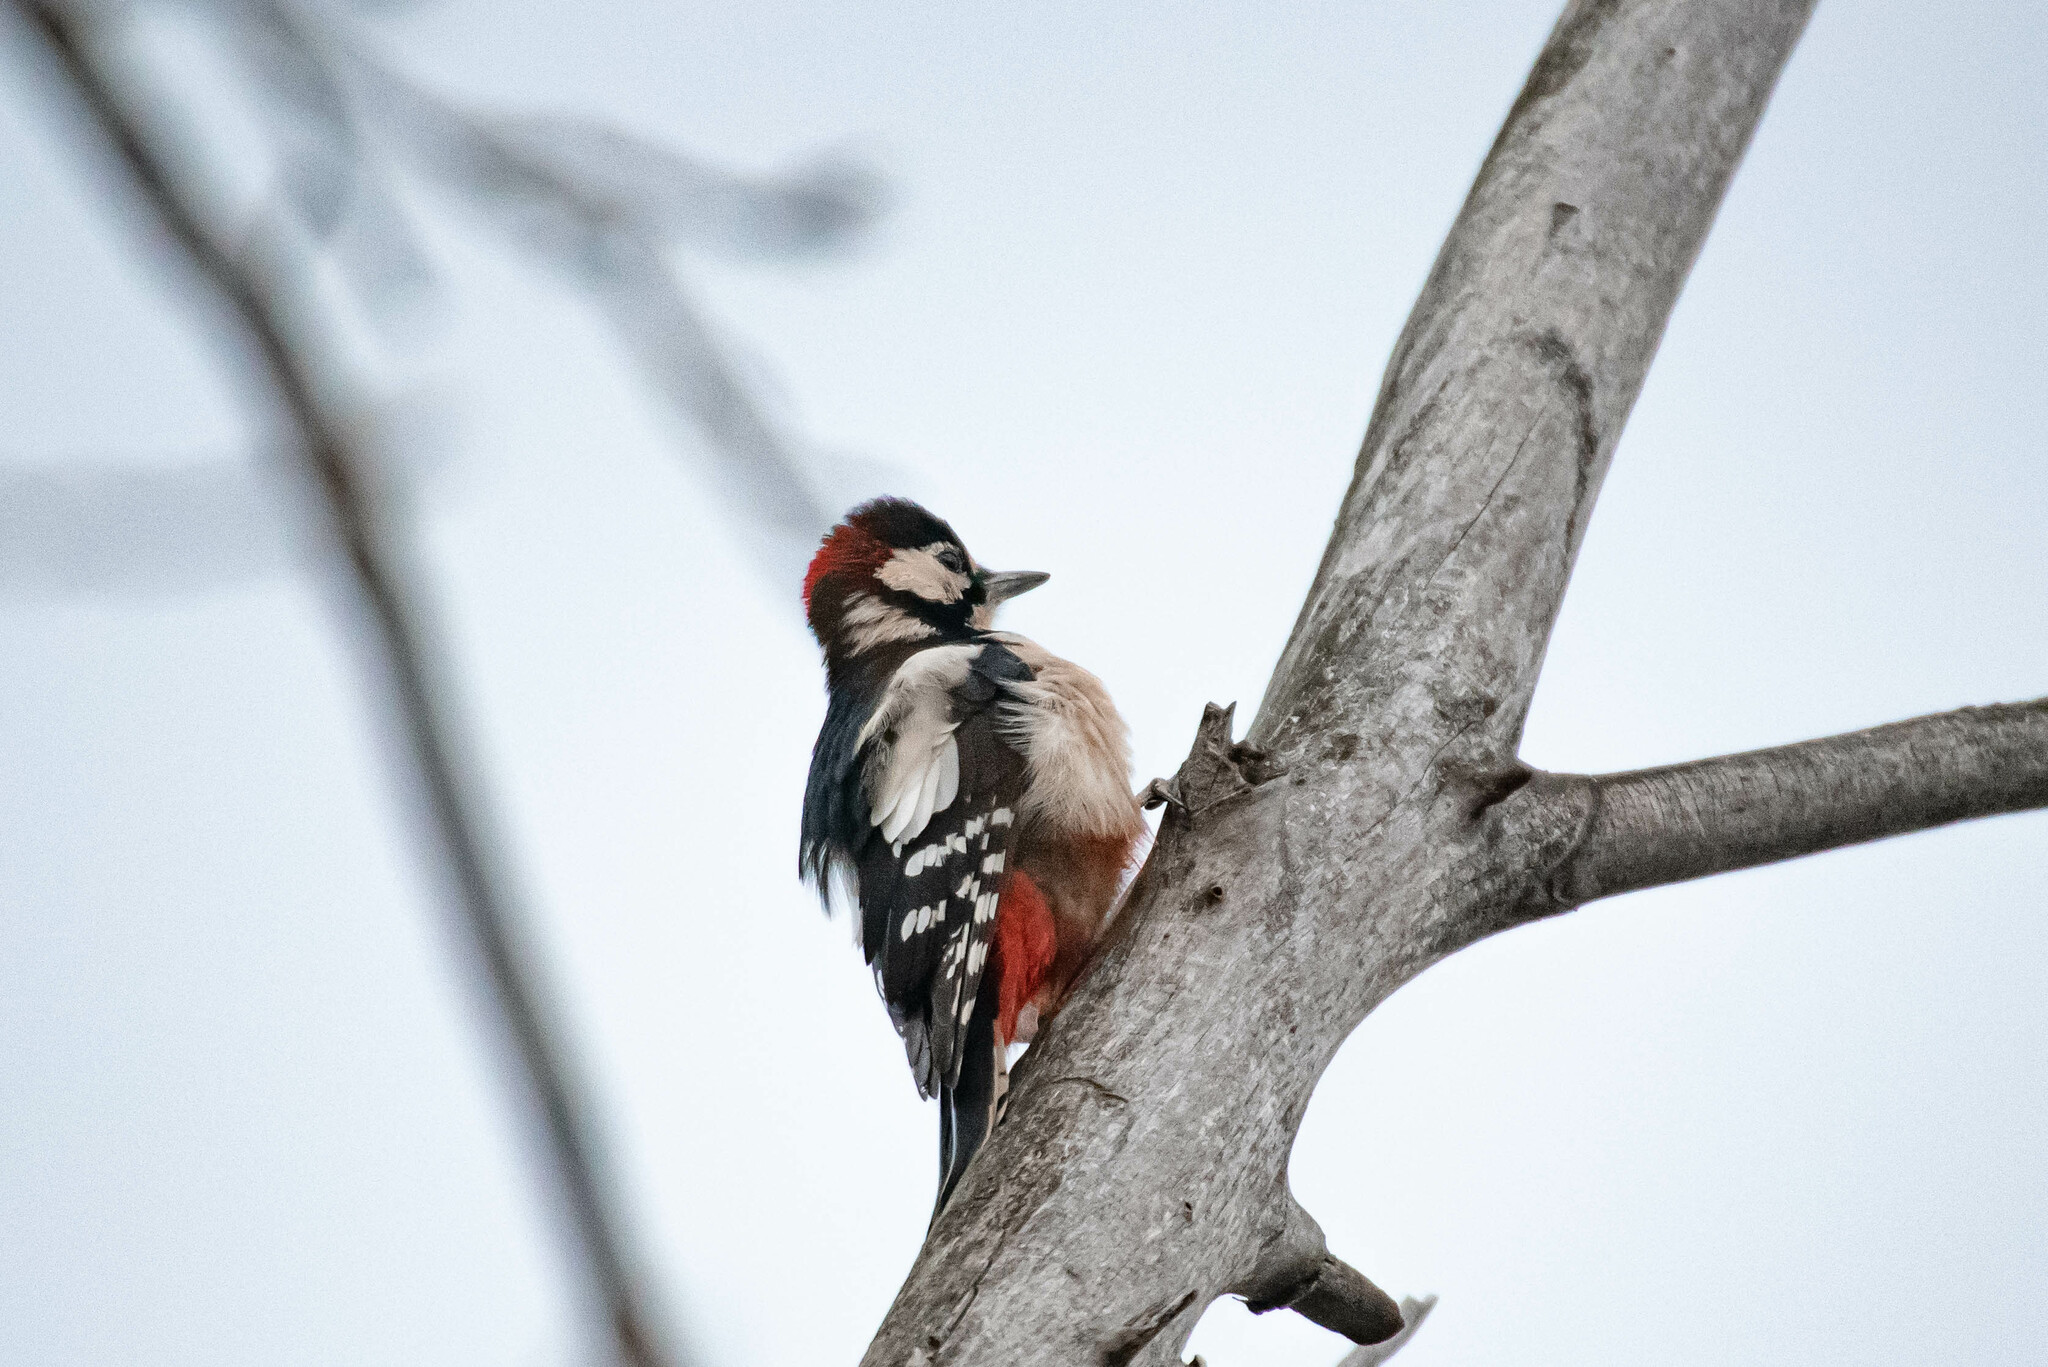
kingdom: Animalia
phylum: Chordata
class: Aves
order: Piciformes
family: Picidae
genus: Dendrocopos
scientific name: Dendrocopos major
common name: Great spotted woodpecker
